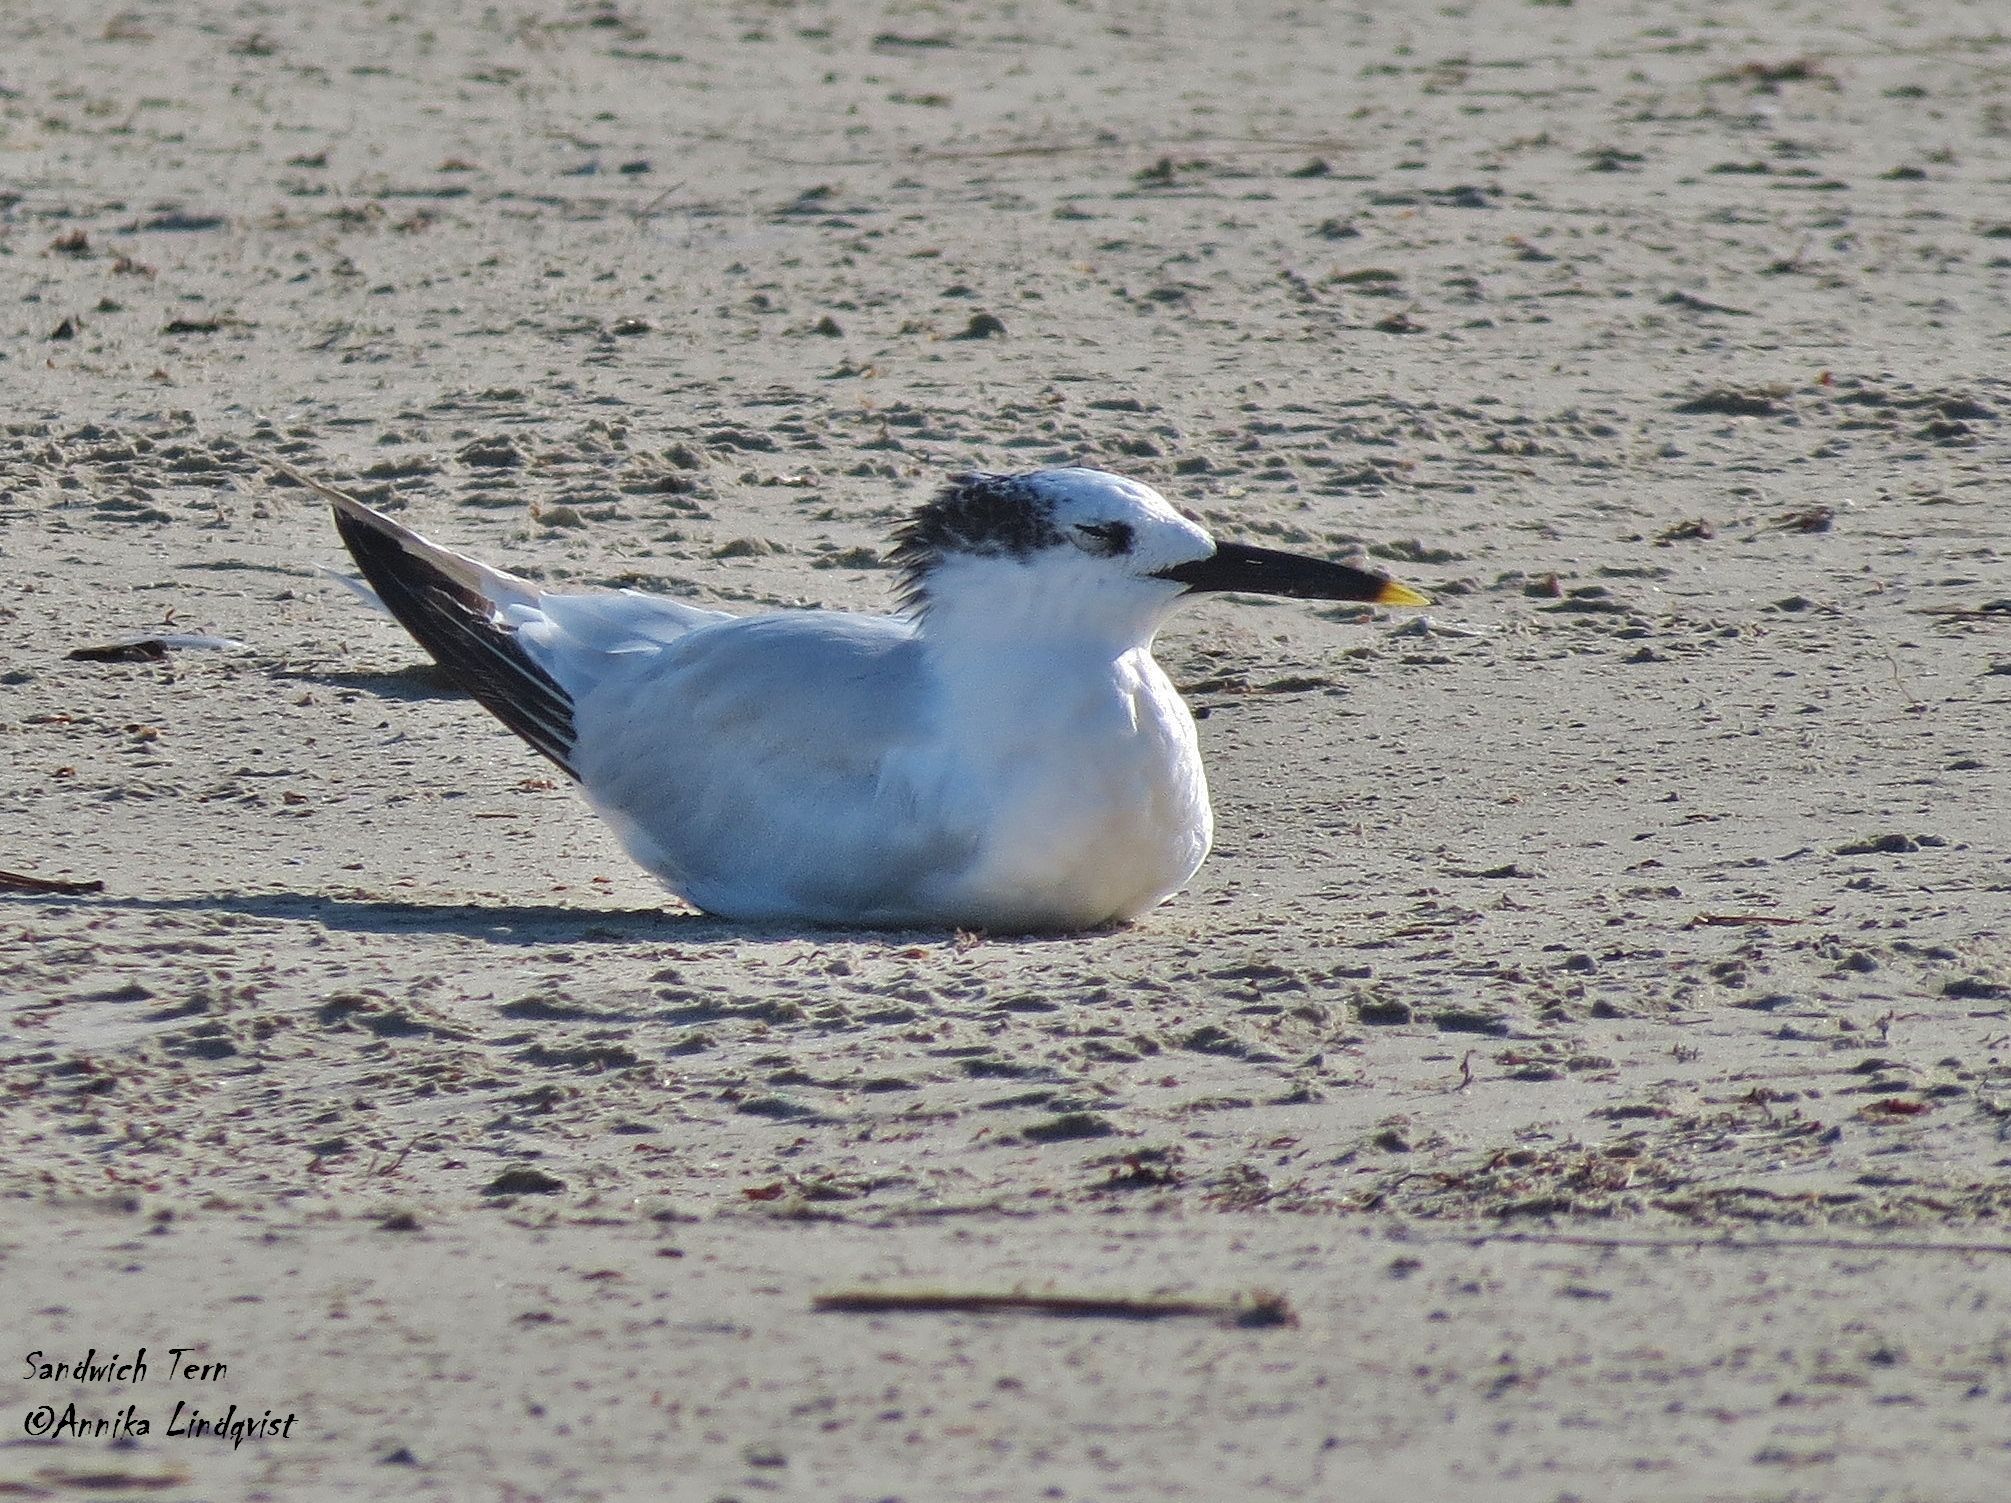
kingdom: Animalia
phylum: Chordata
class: Aves
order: Charadriiformes
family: Laridae
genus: Thalasseus
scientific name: Thalasseus sandvicensis
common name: Sandwich tern
